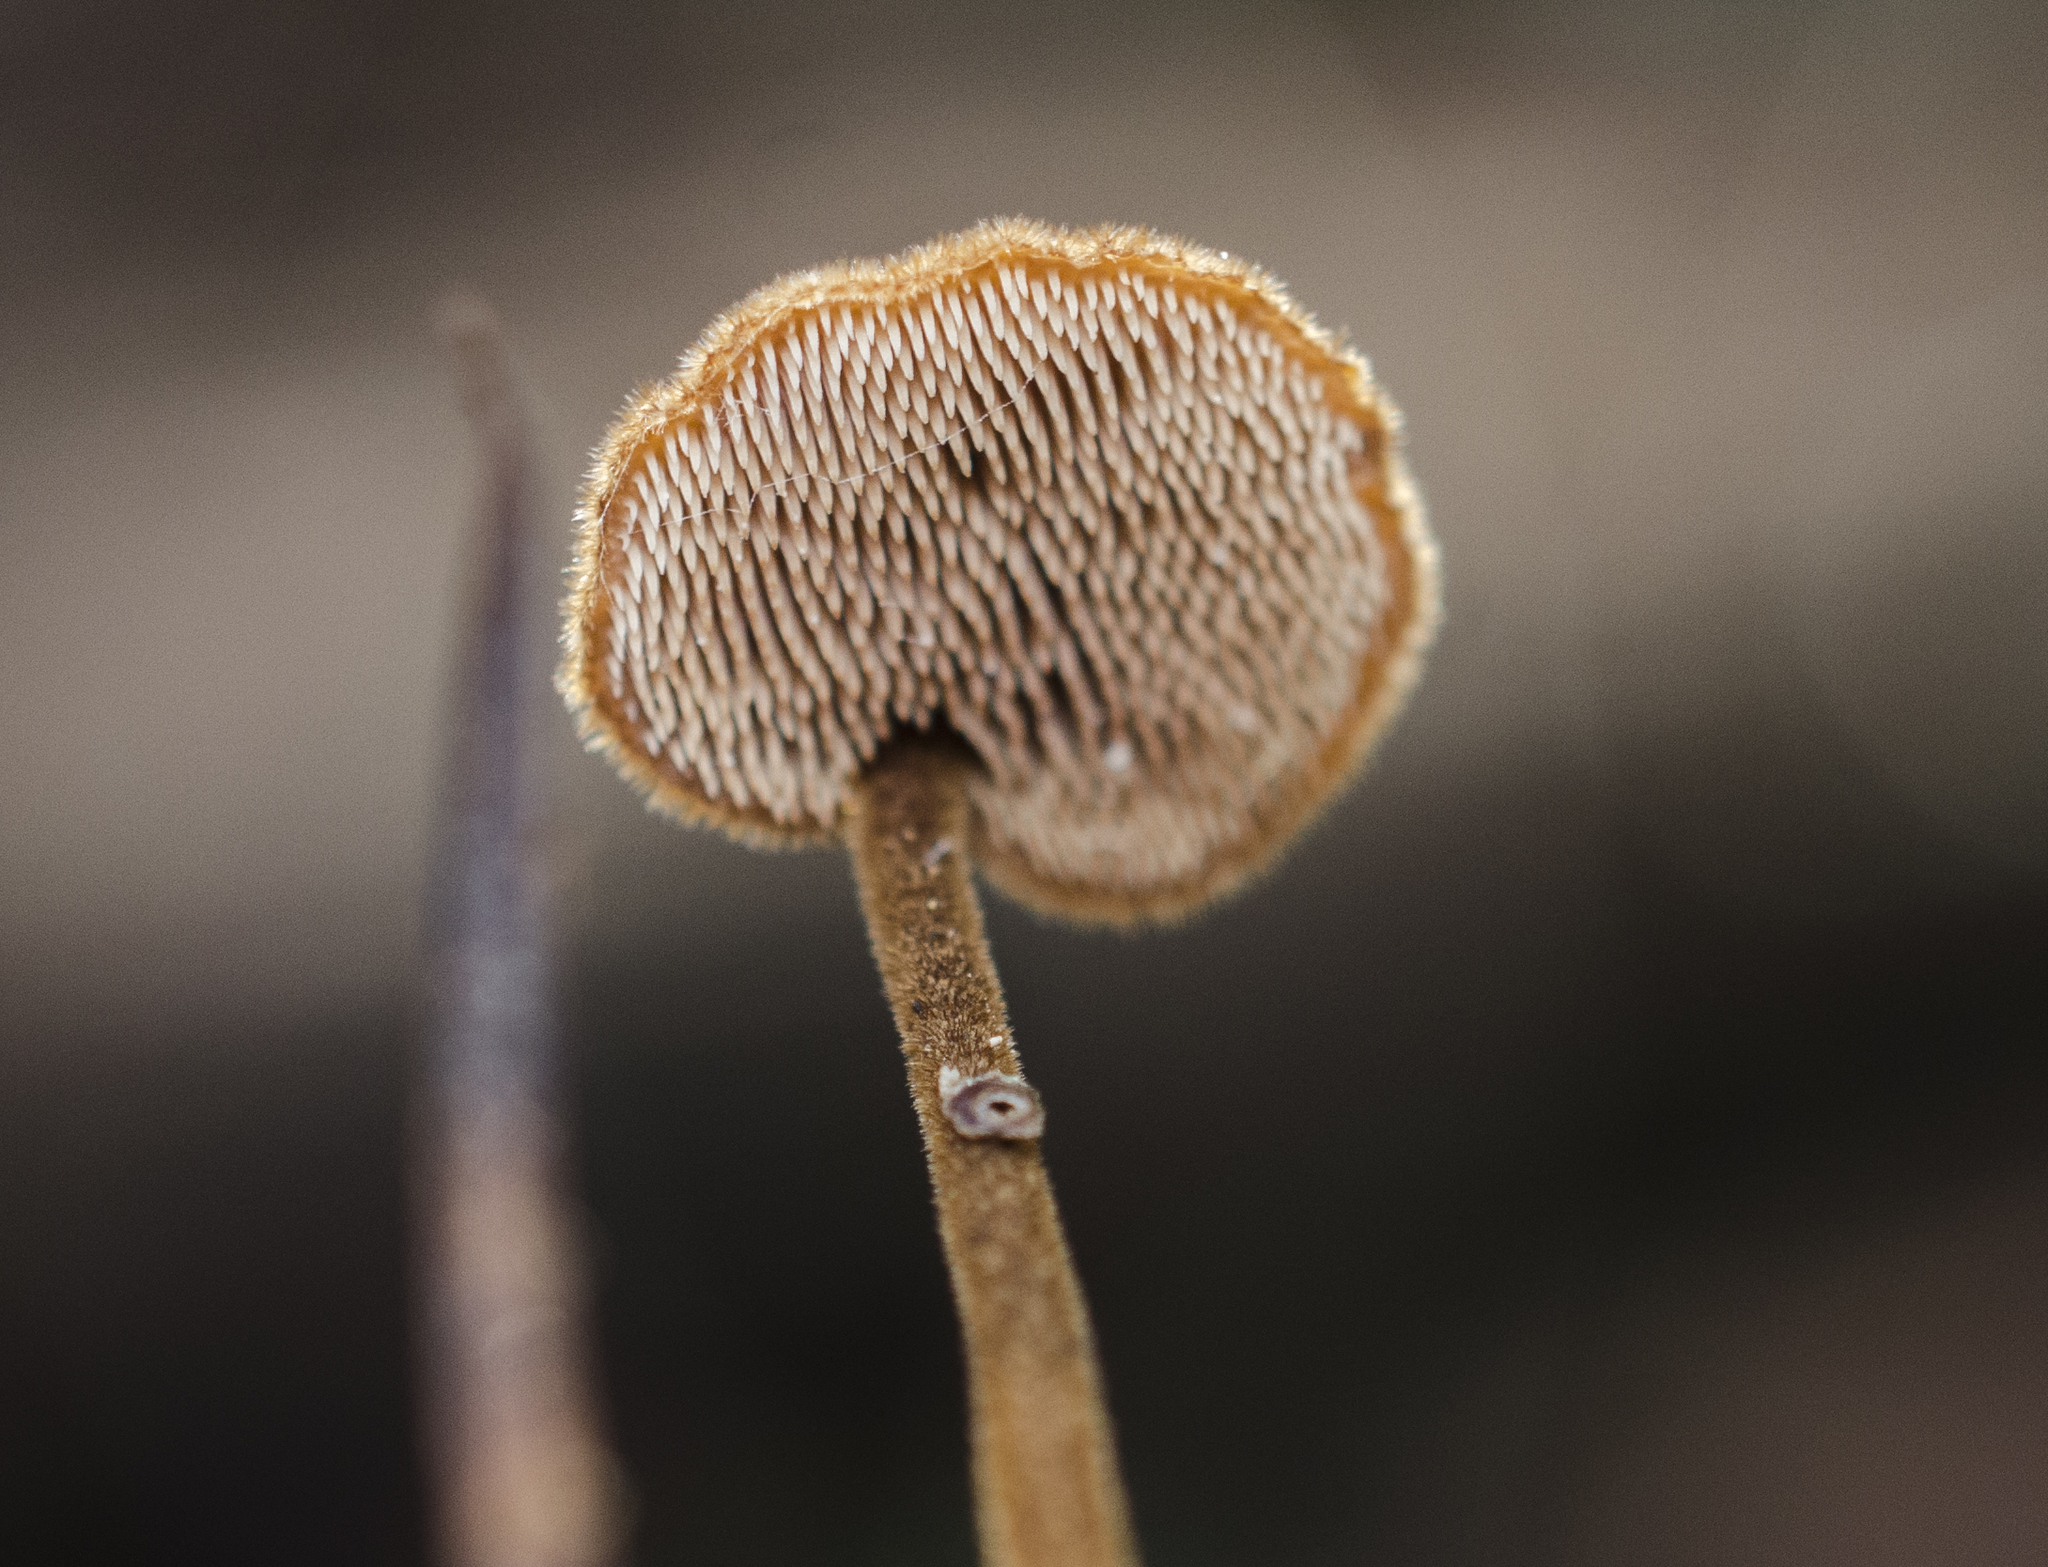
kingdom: Fungi
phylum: Basidiomycota
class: Agaricomycetes
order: Russulales
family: Auriscalpiaceae
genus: Auriscalpium
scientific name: Auriscalpium vulgare
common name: Earpick fungus
